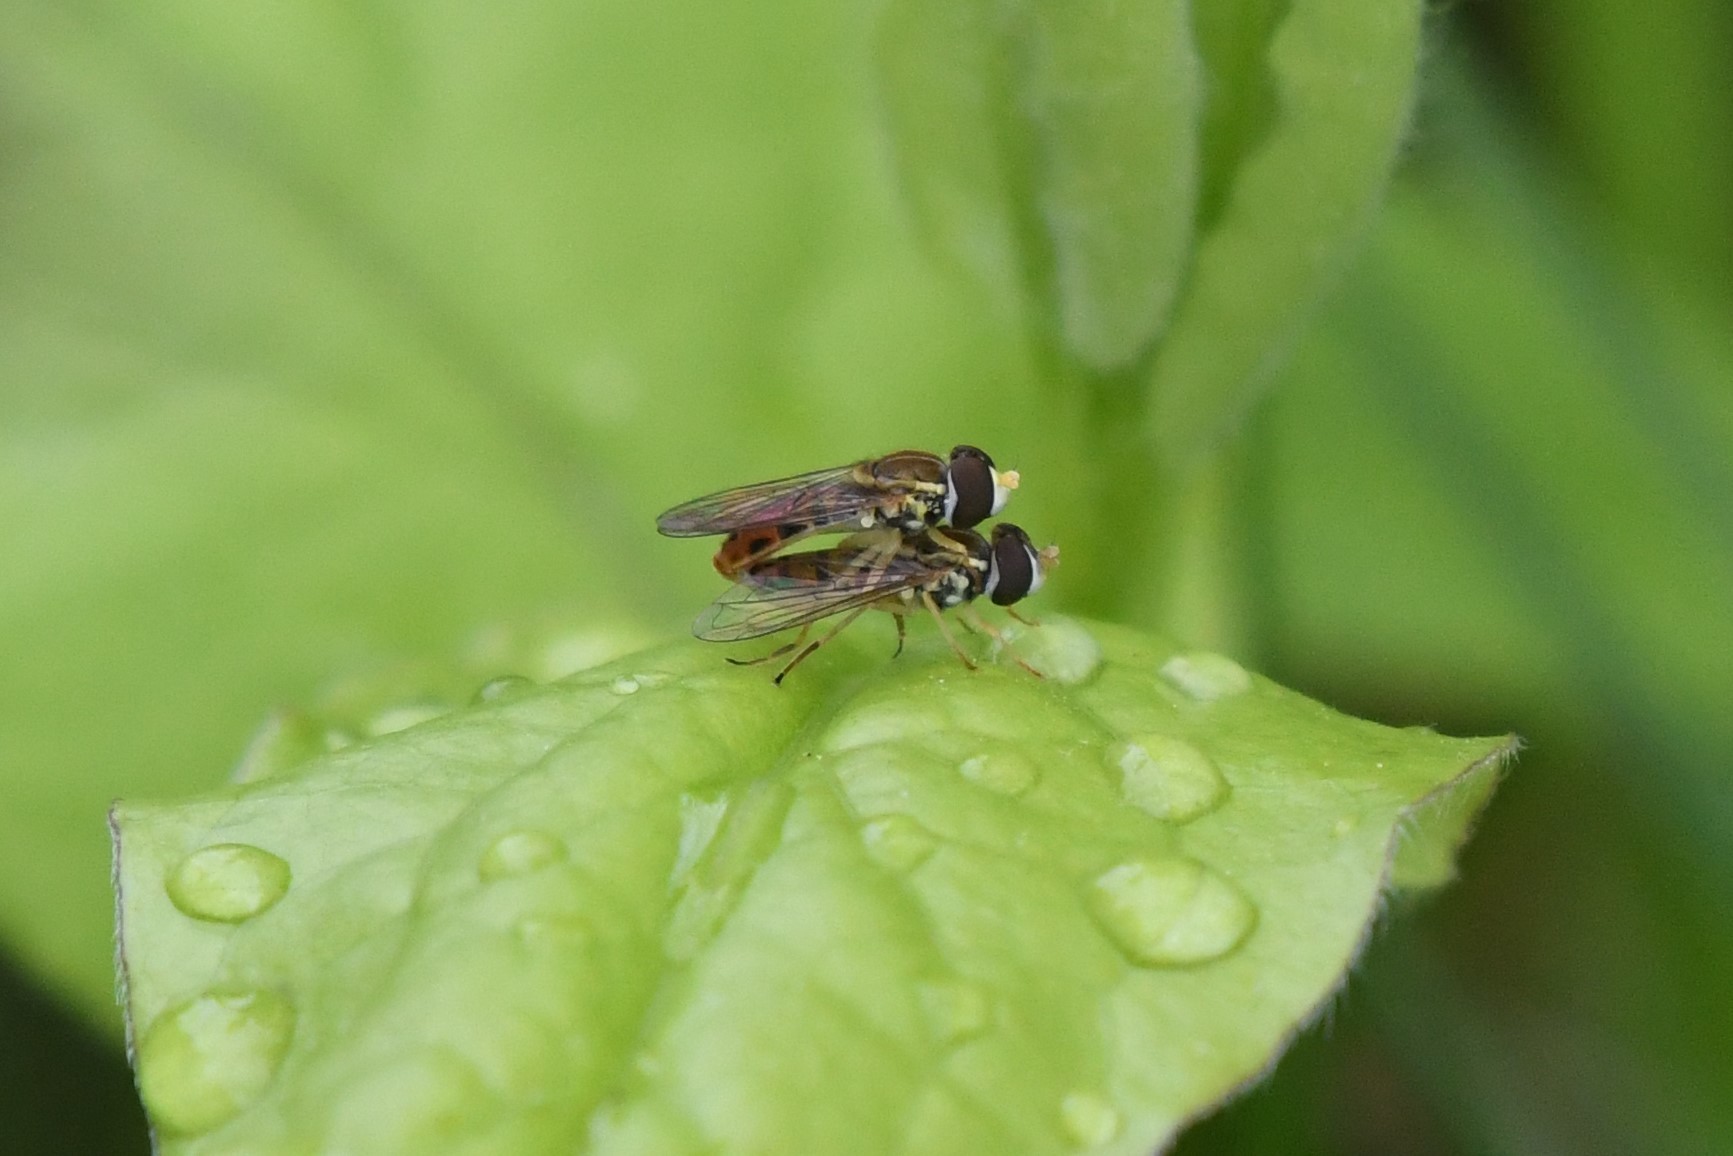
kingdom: Animalia
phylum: Arthropoda
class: Insecta
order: Diptera
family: Syrphidae
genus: Toxomerus
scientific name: Toxomerus marginatus
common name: Syrphid fly
